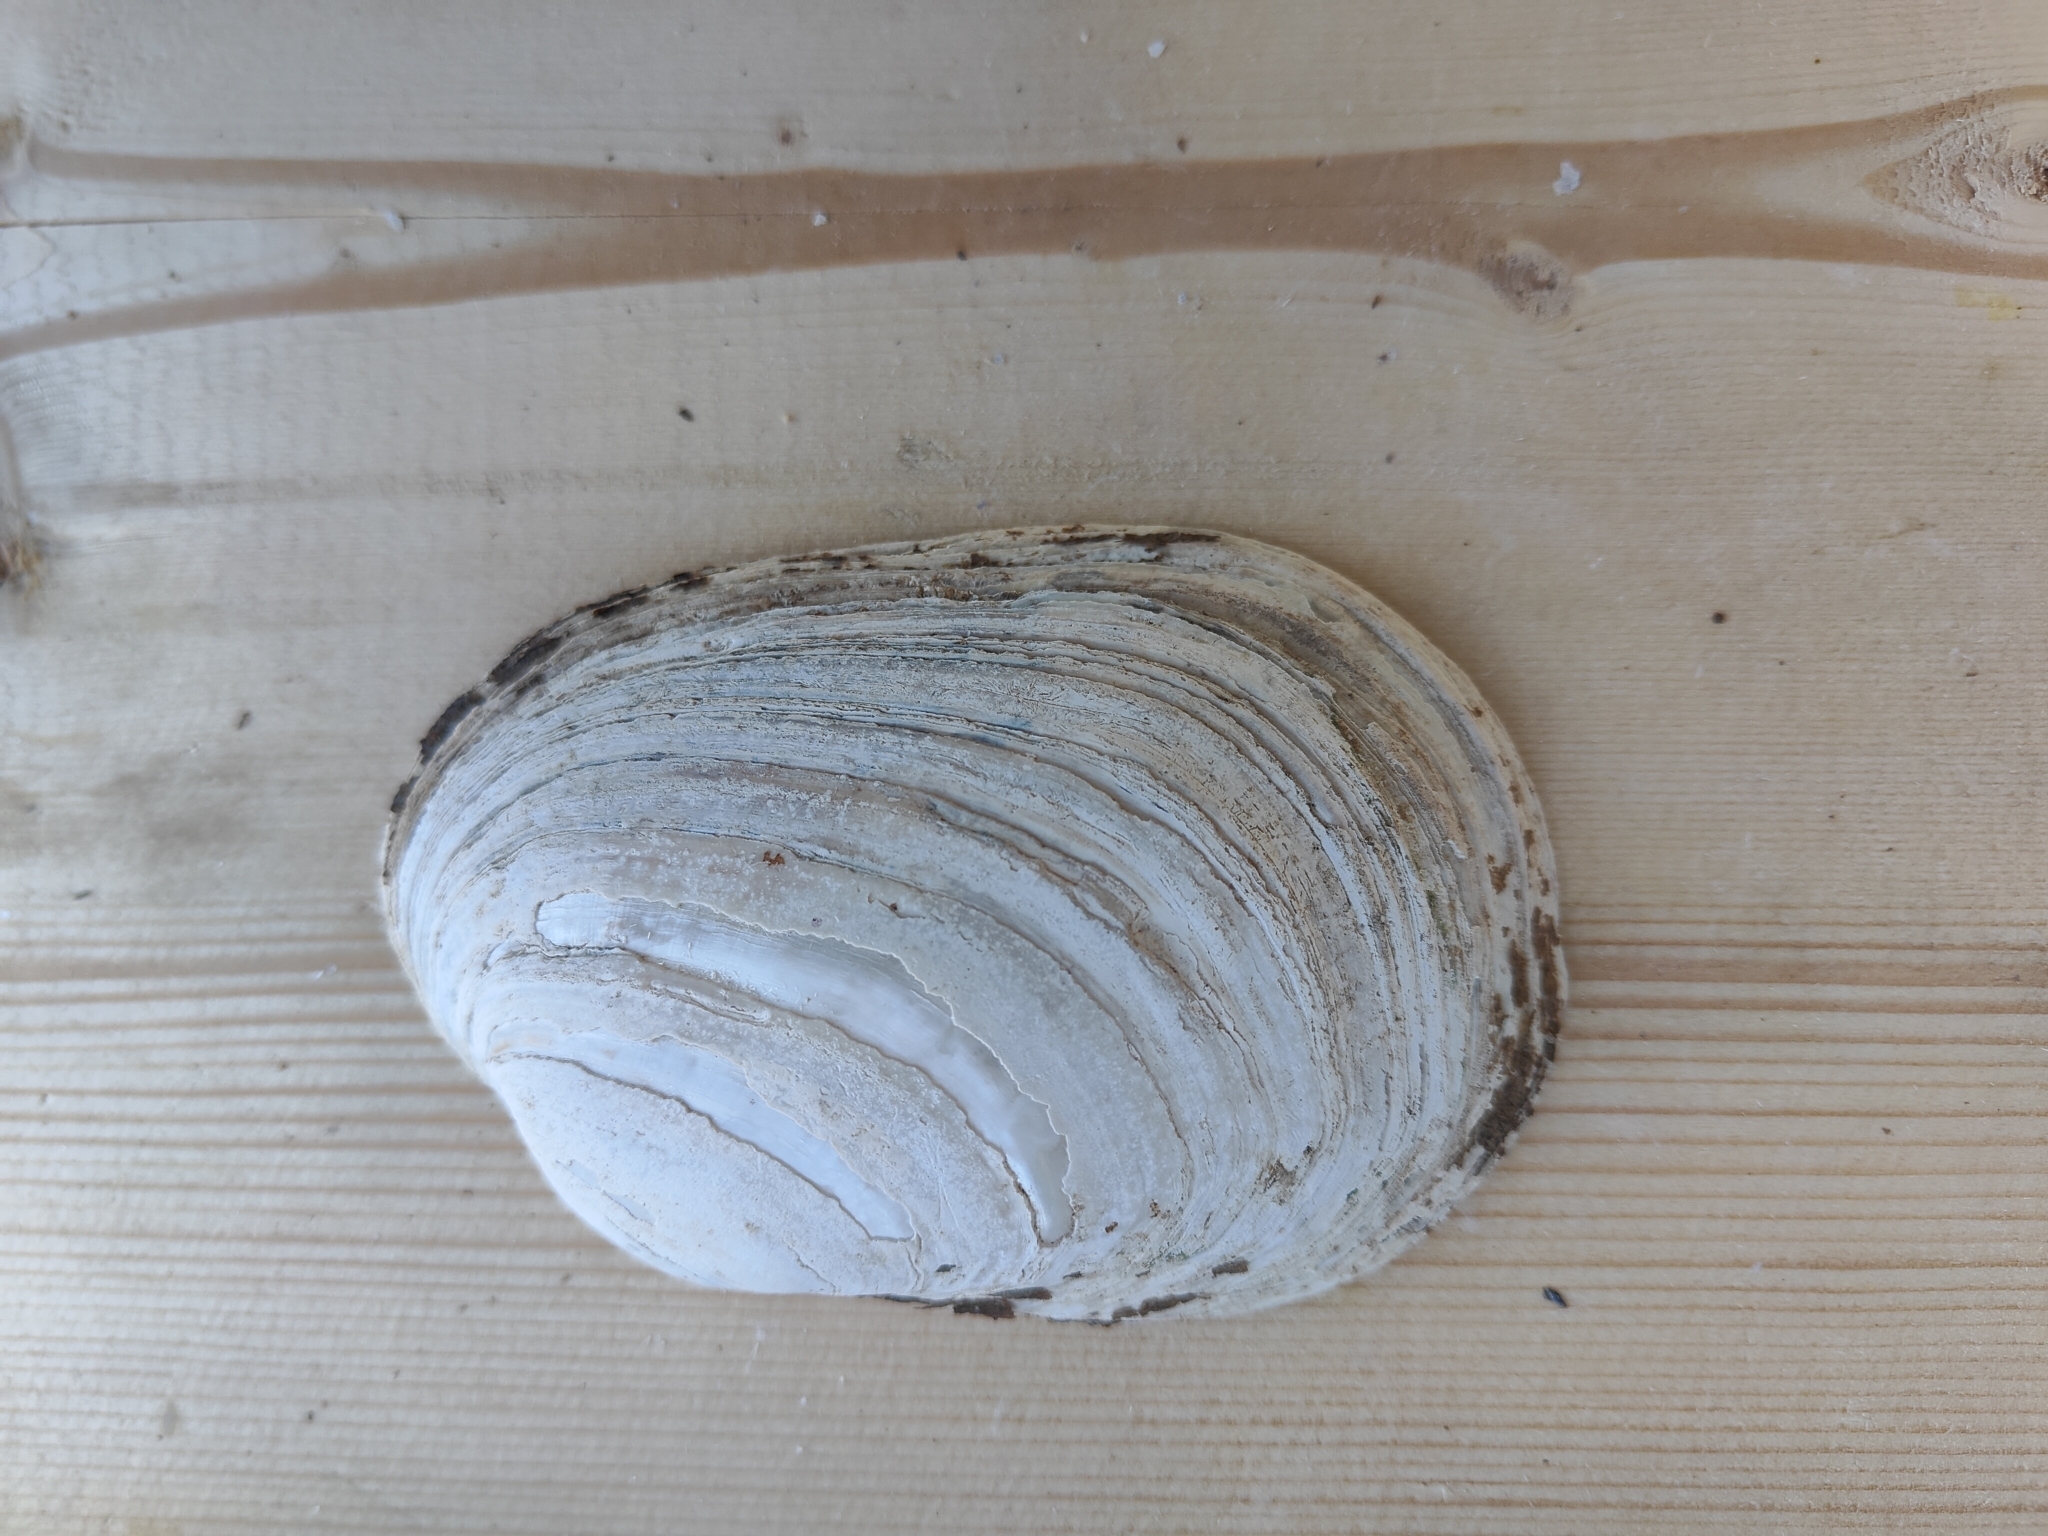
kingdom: Animalia
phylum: Mollusca
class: Bivalvia
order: Unionida
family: Unionidae
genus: Lampsilis
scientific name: Lampsilis siliquoidea
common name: Fatmucket
